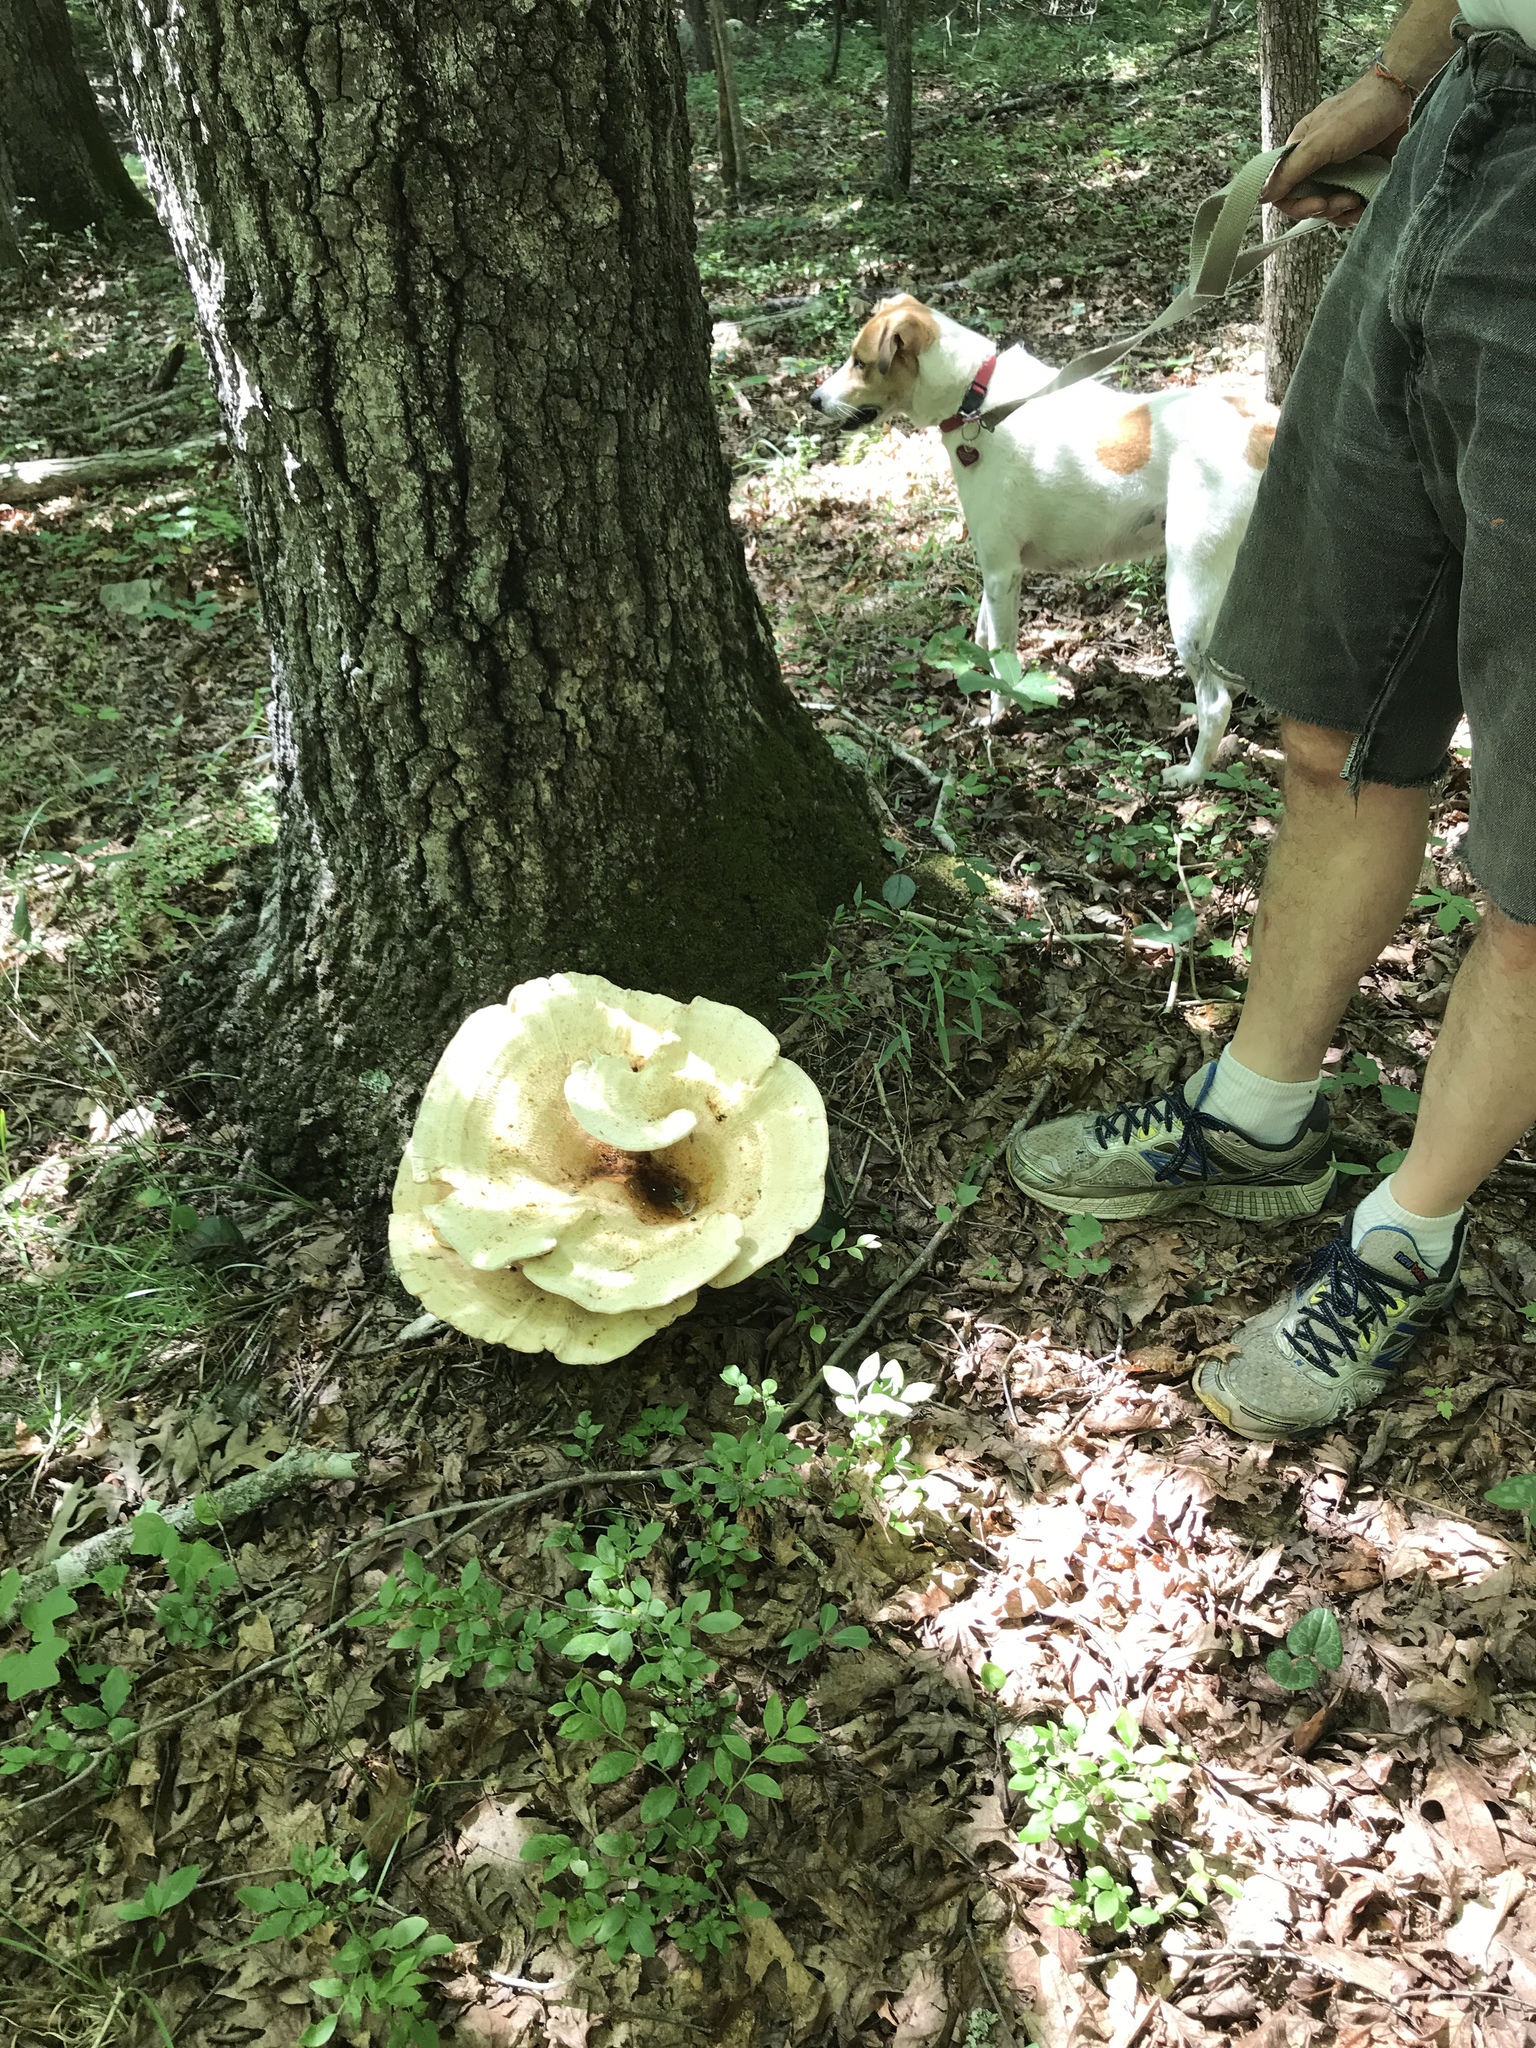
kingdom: Fungi
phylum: Basidiomycota
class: Agaricomycetes
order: Russulales
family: Bondarzewiaceae
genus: Bondarzewia
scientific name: Bondarzewia berkeleyi
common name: Berkeley's polypore
